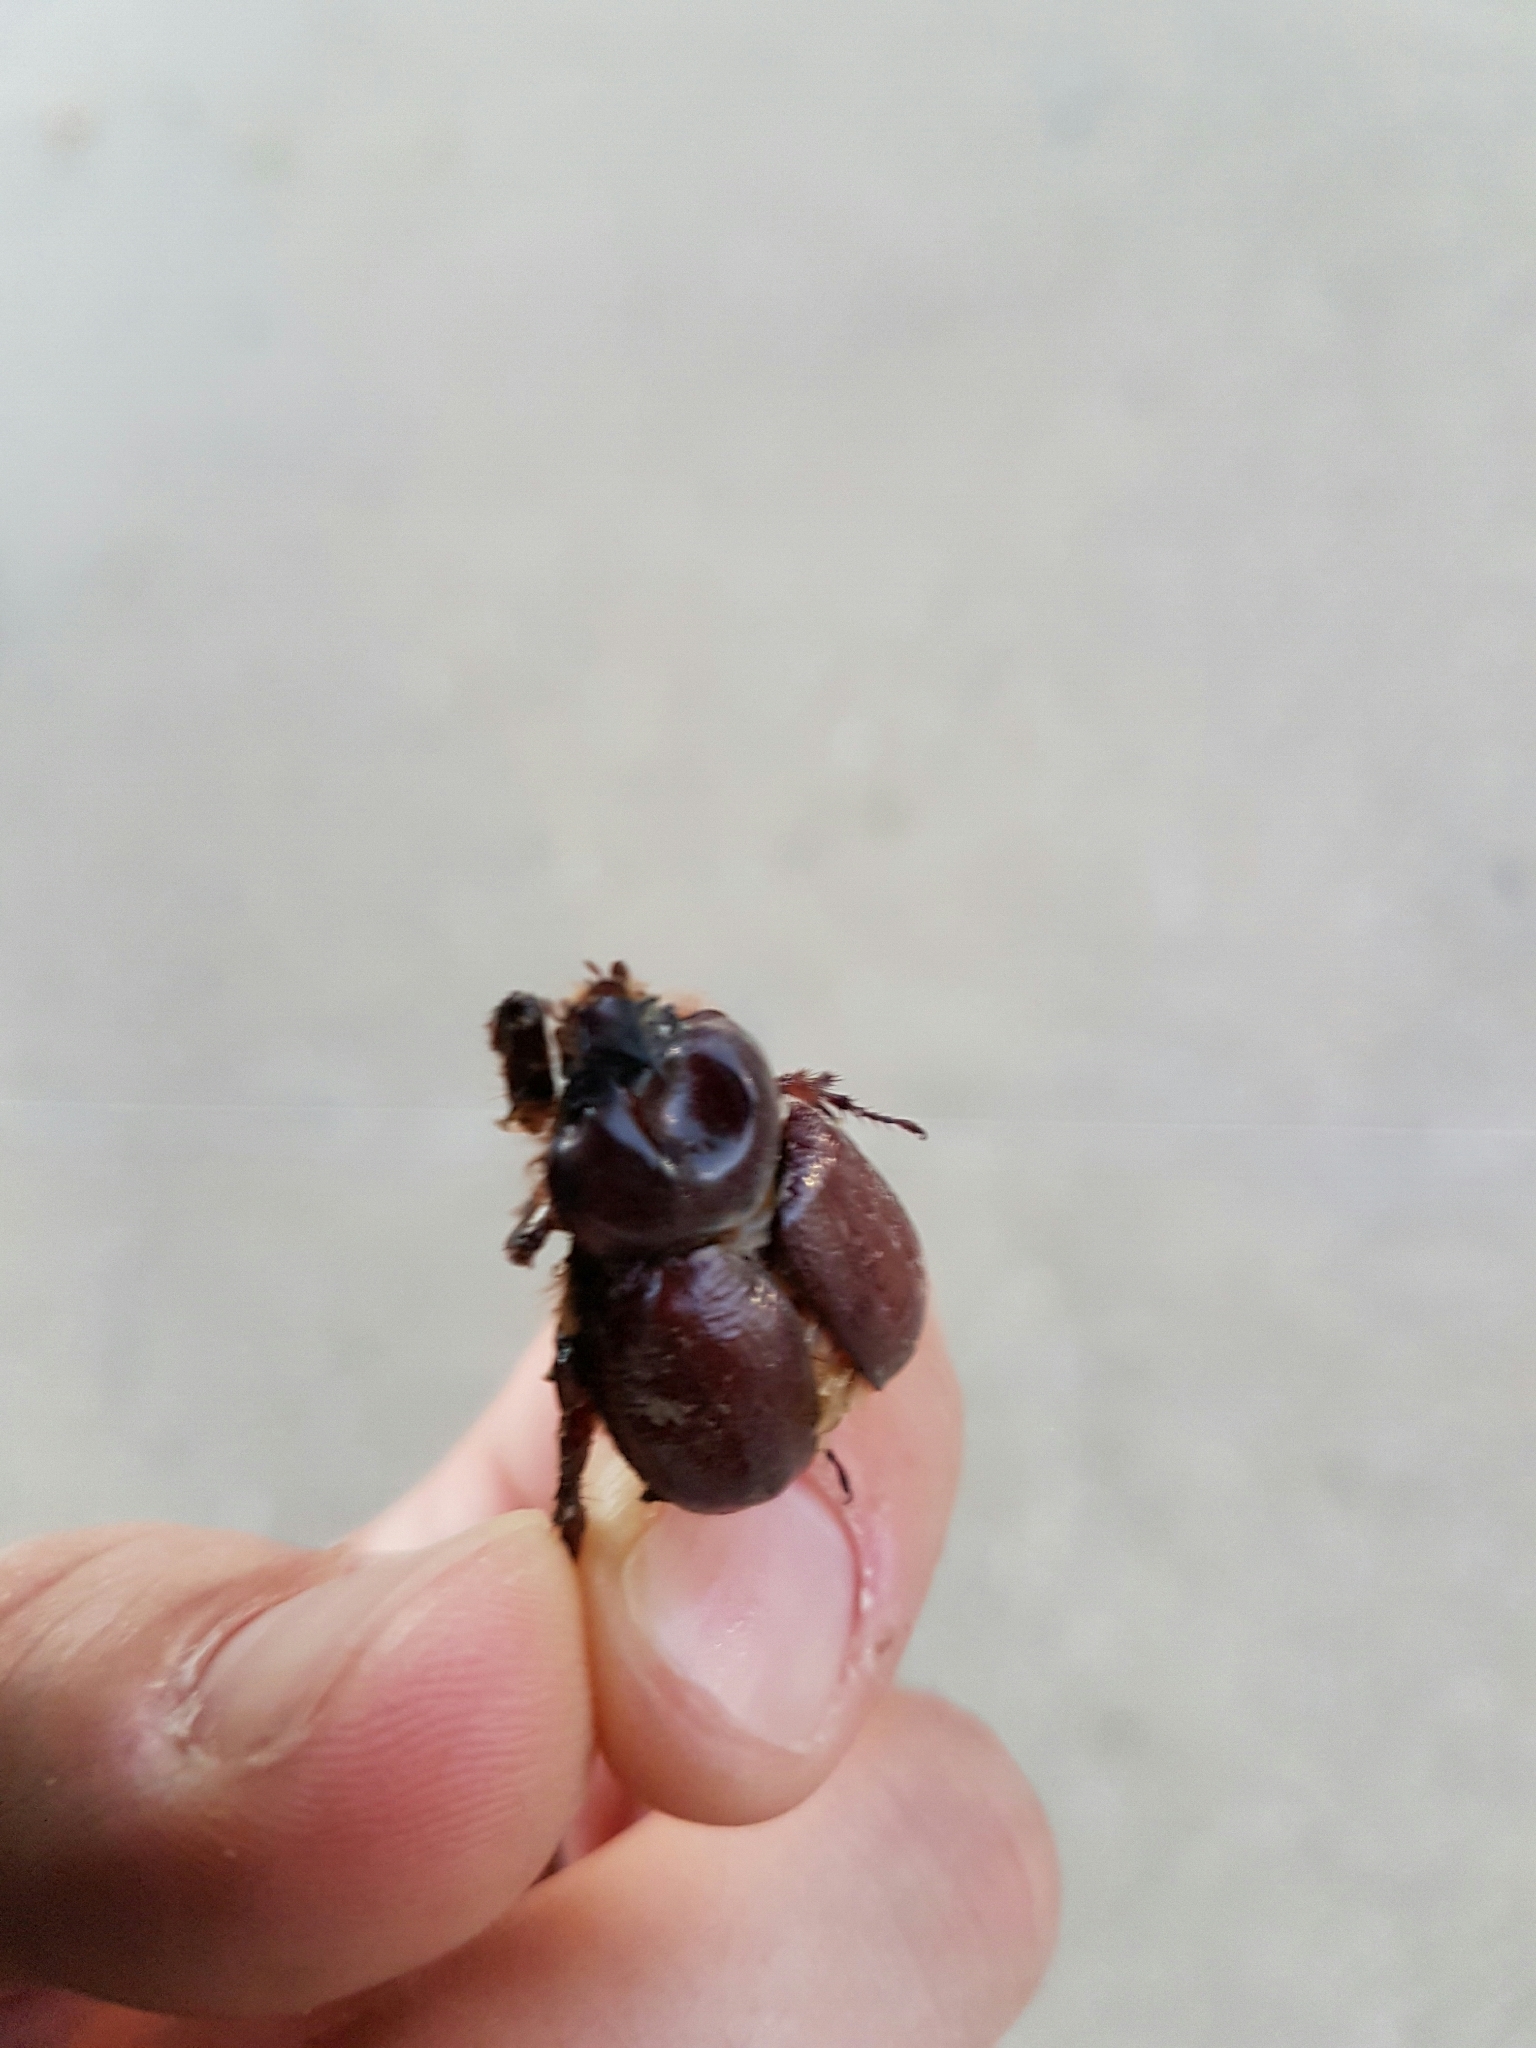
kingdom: Animalia
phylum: Arthropoda
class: Insecta
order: Coleoptera
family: Scarabaeidae
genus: Phyllognathus
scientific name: Phyllognathus excavatus
